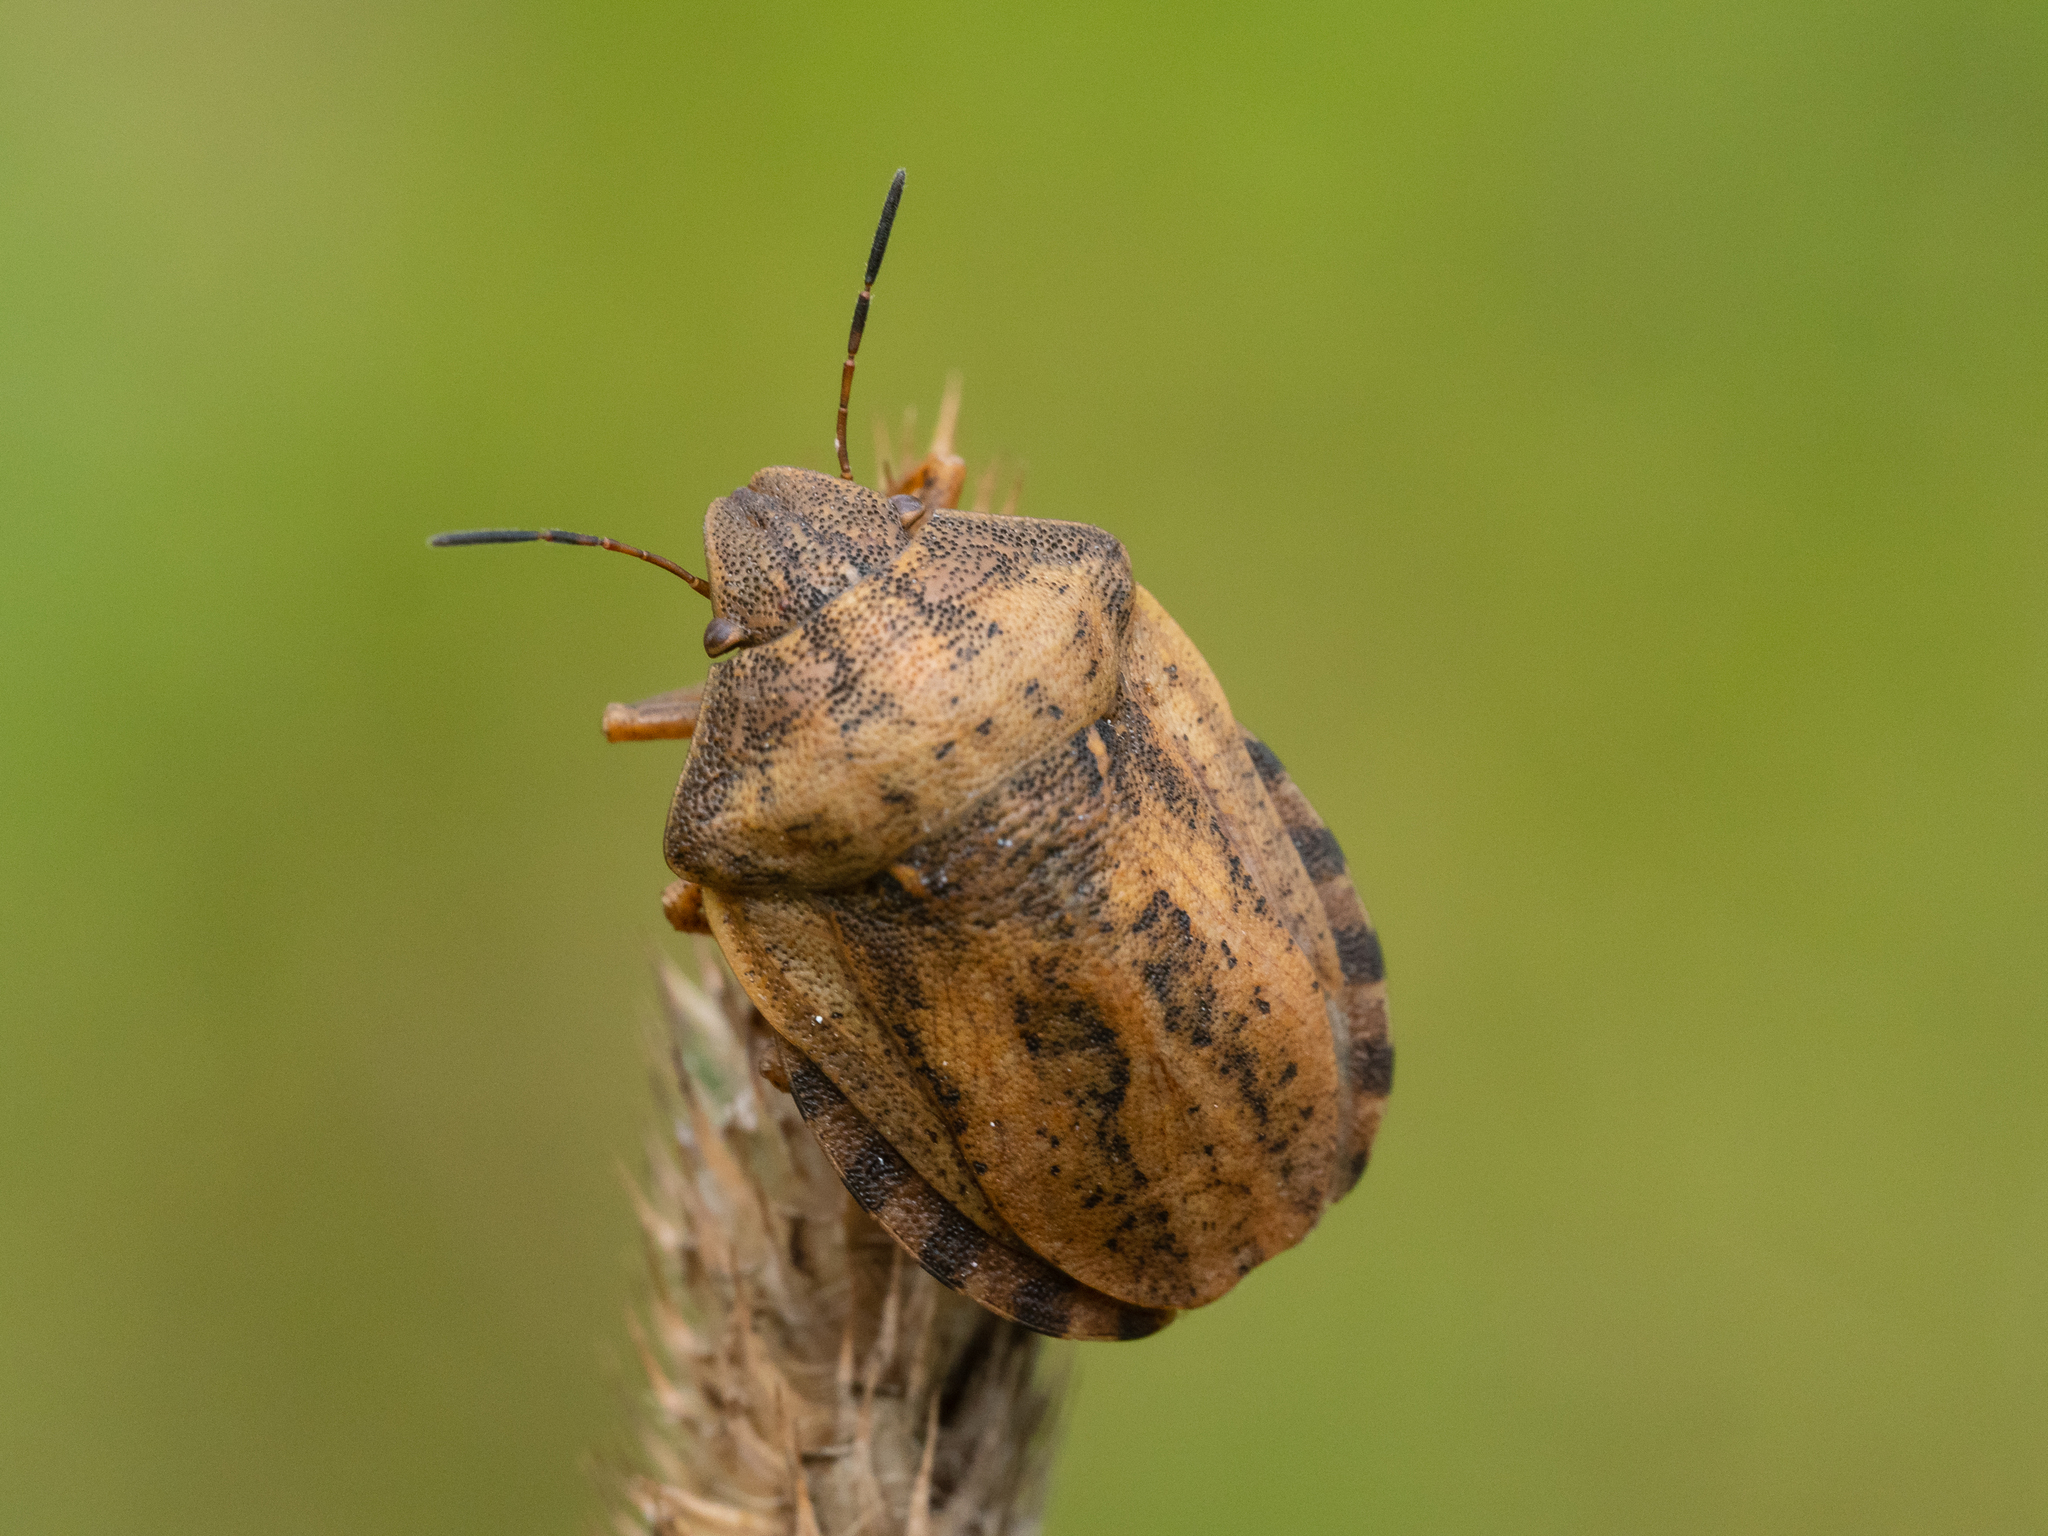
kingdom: Animalia
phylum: Arthropoda
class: Insecta
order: Hemiptera
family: Scutelleridae
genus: Eurygaster
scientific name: Eurygaster testudinaria
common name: Tortoise bug
